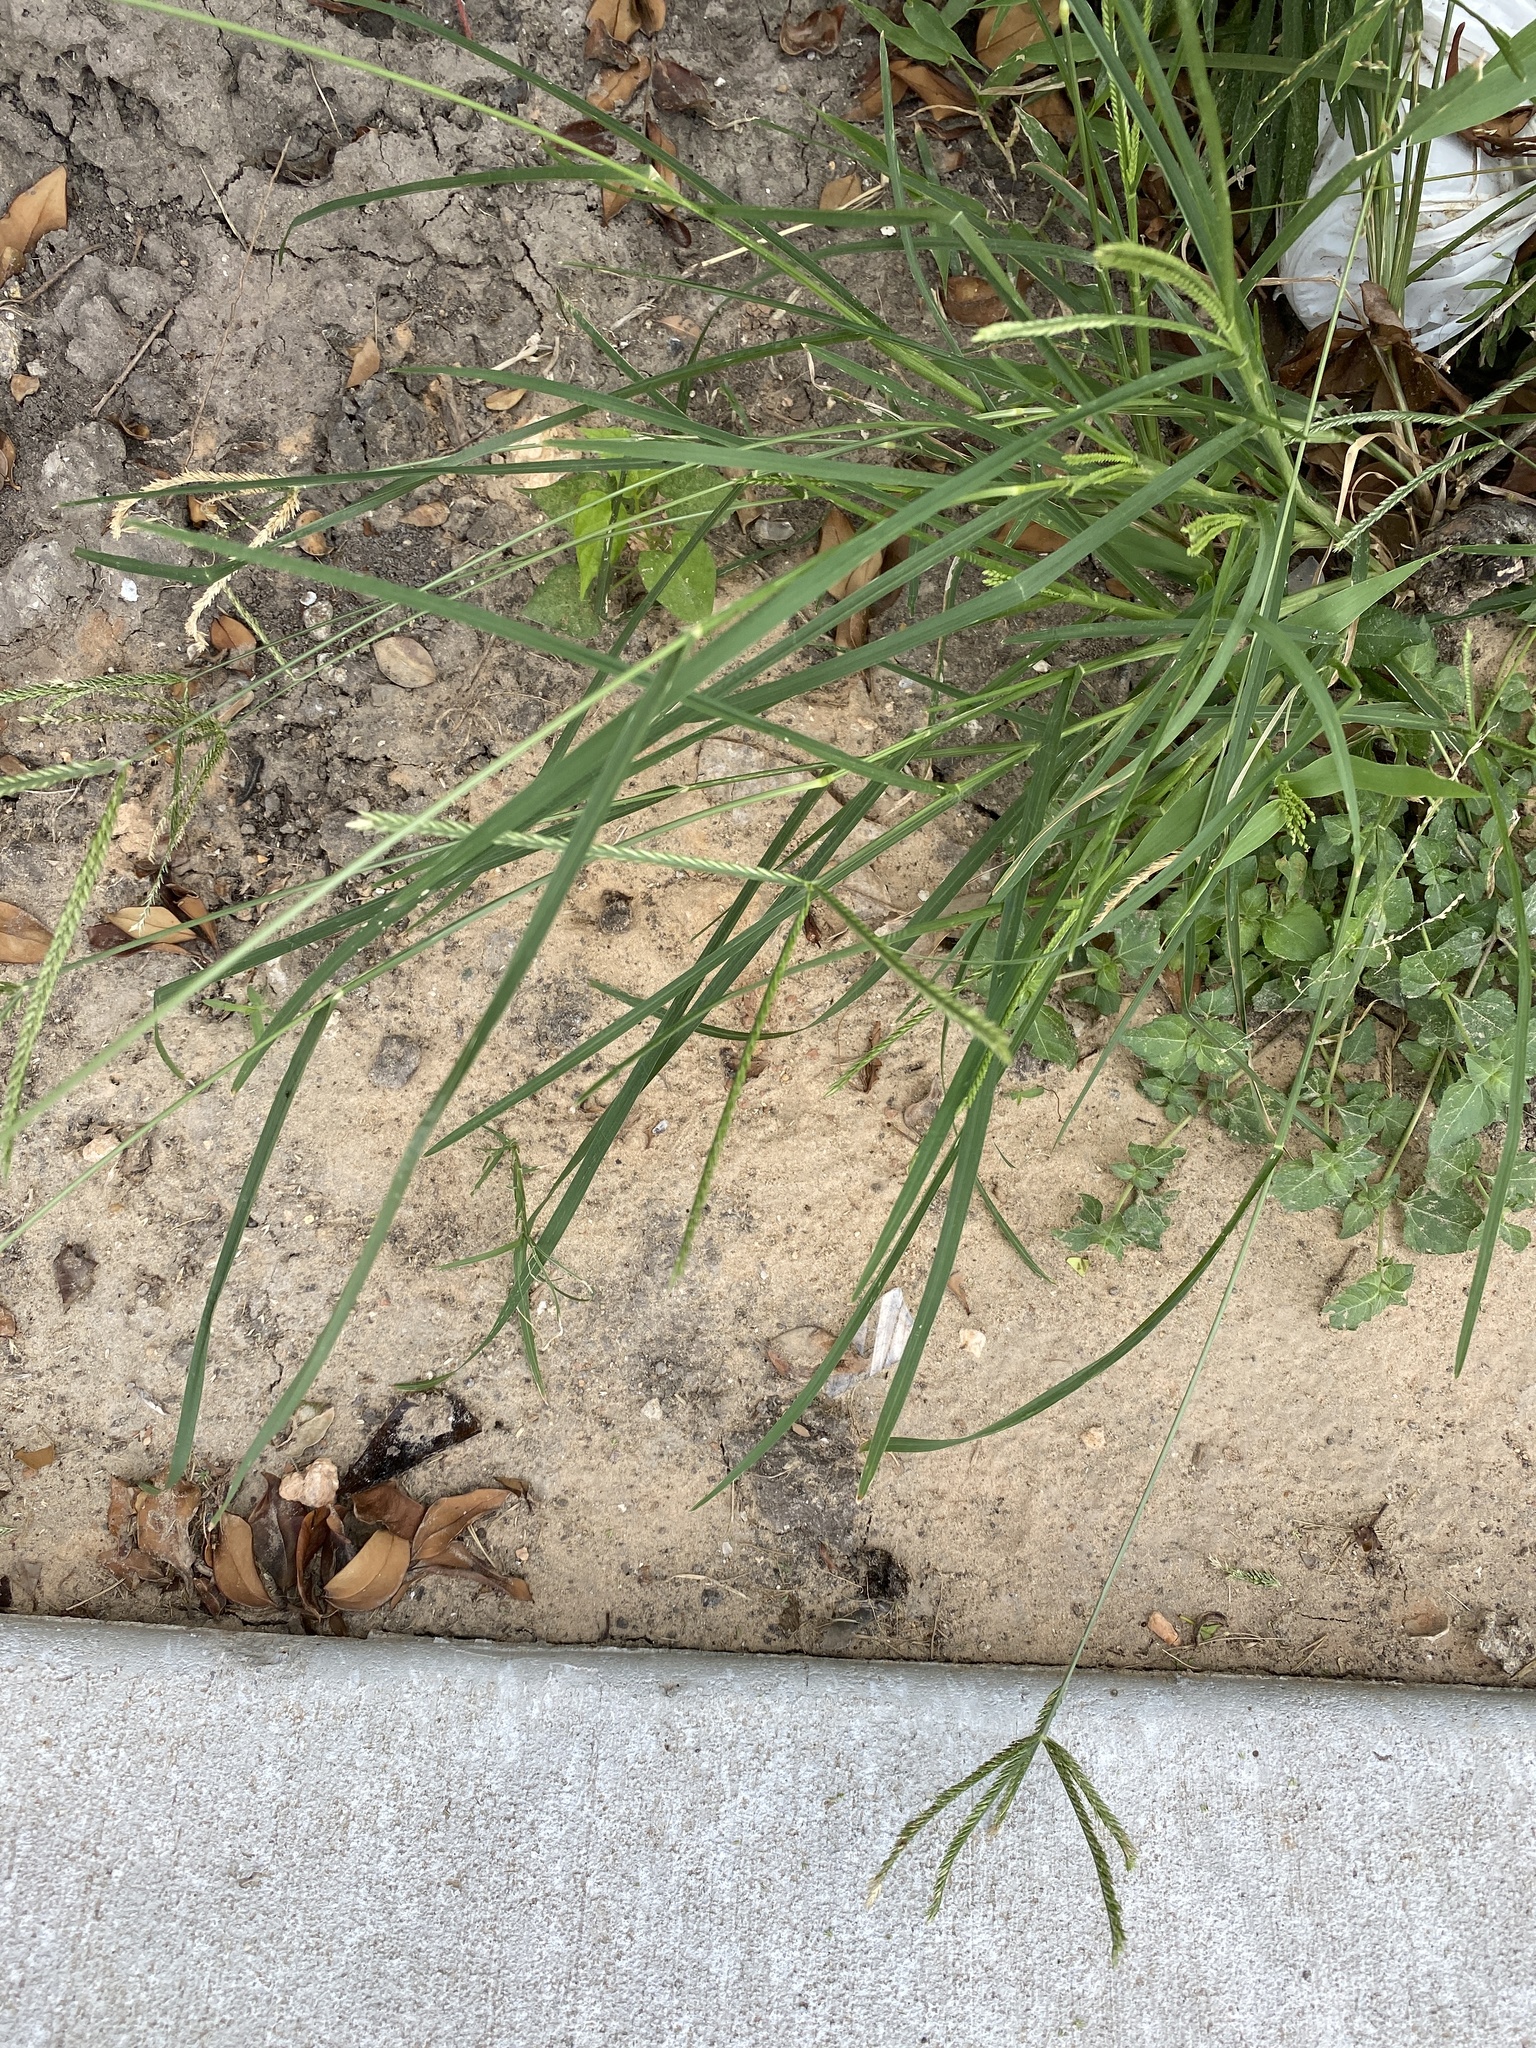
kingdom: Plantae
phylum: Tracheophyta
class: Liliopsida
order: Poales
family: Poaceae
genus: Eleusine
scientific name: Eleusine indica
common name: Yard-grass
